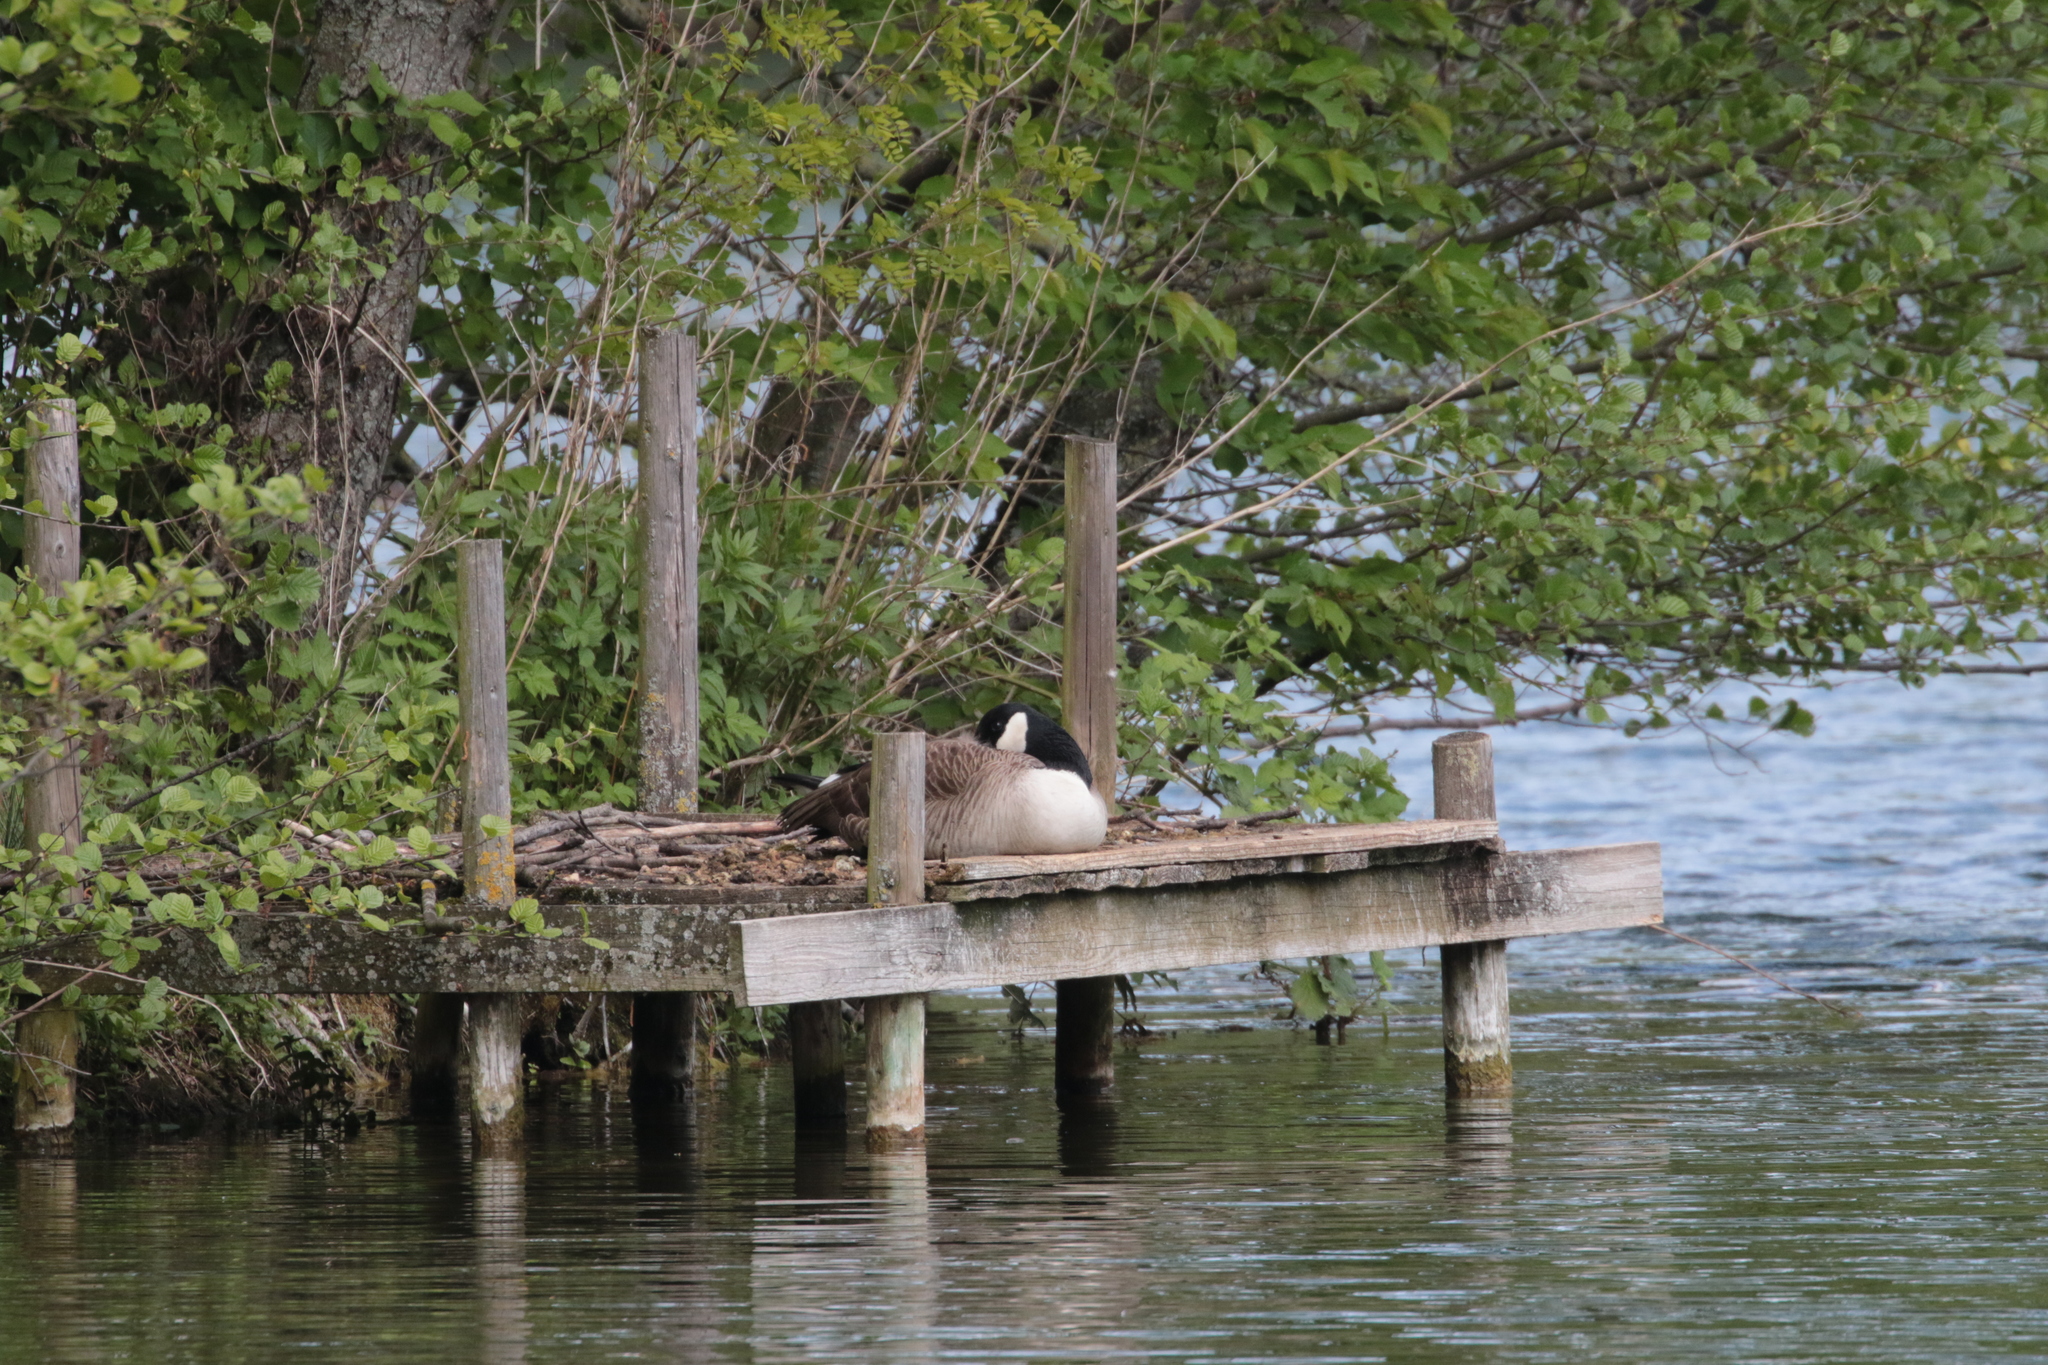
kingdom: Animalia
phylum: Chordata
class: Aves
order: Anseriformes
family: Anatidae
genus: Branta
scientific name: Branta canadensis
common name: Canada goose
